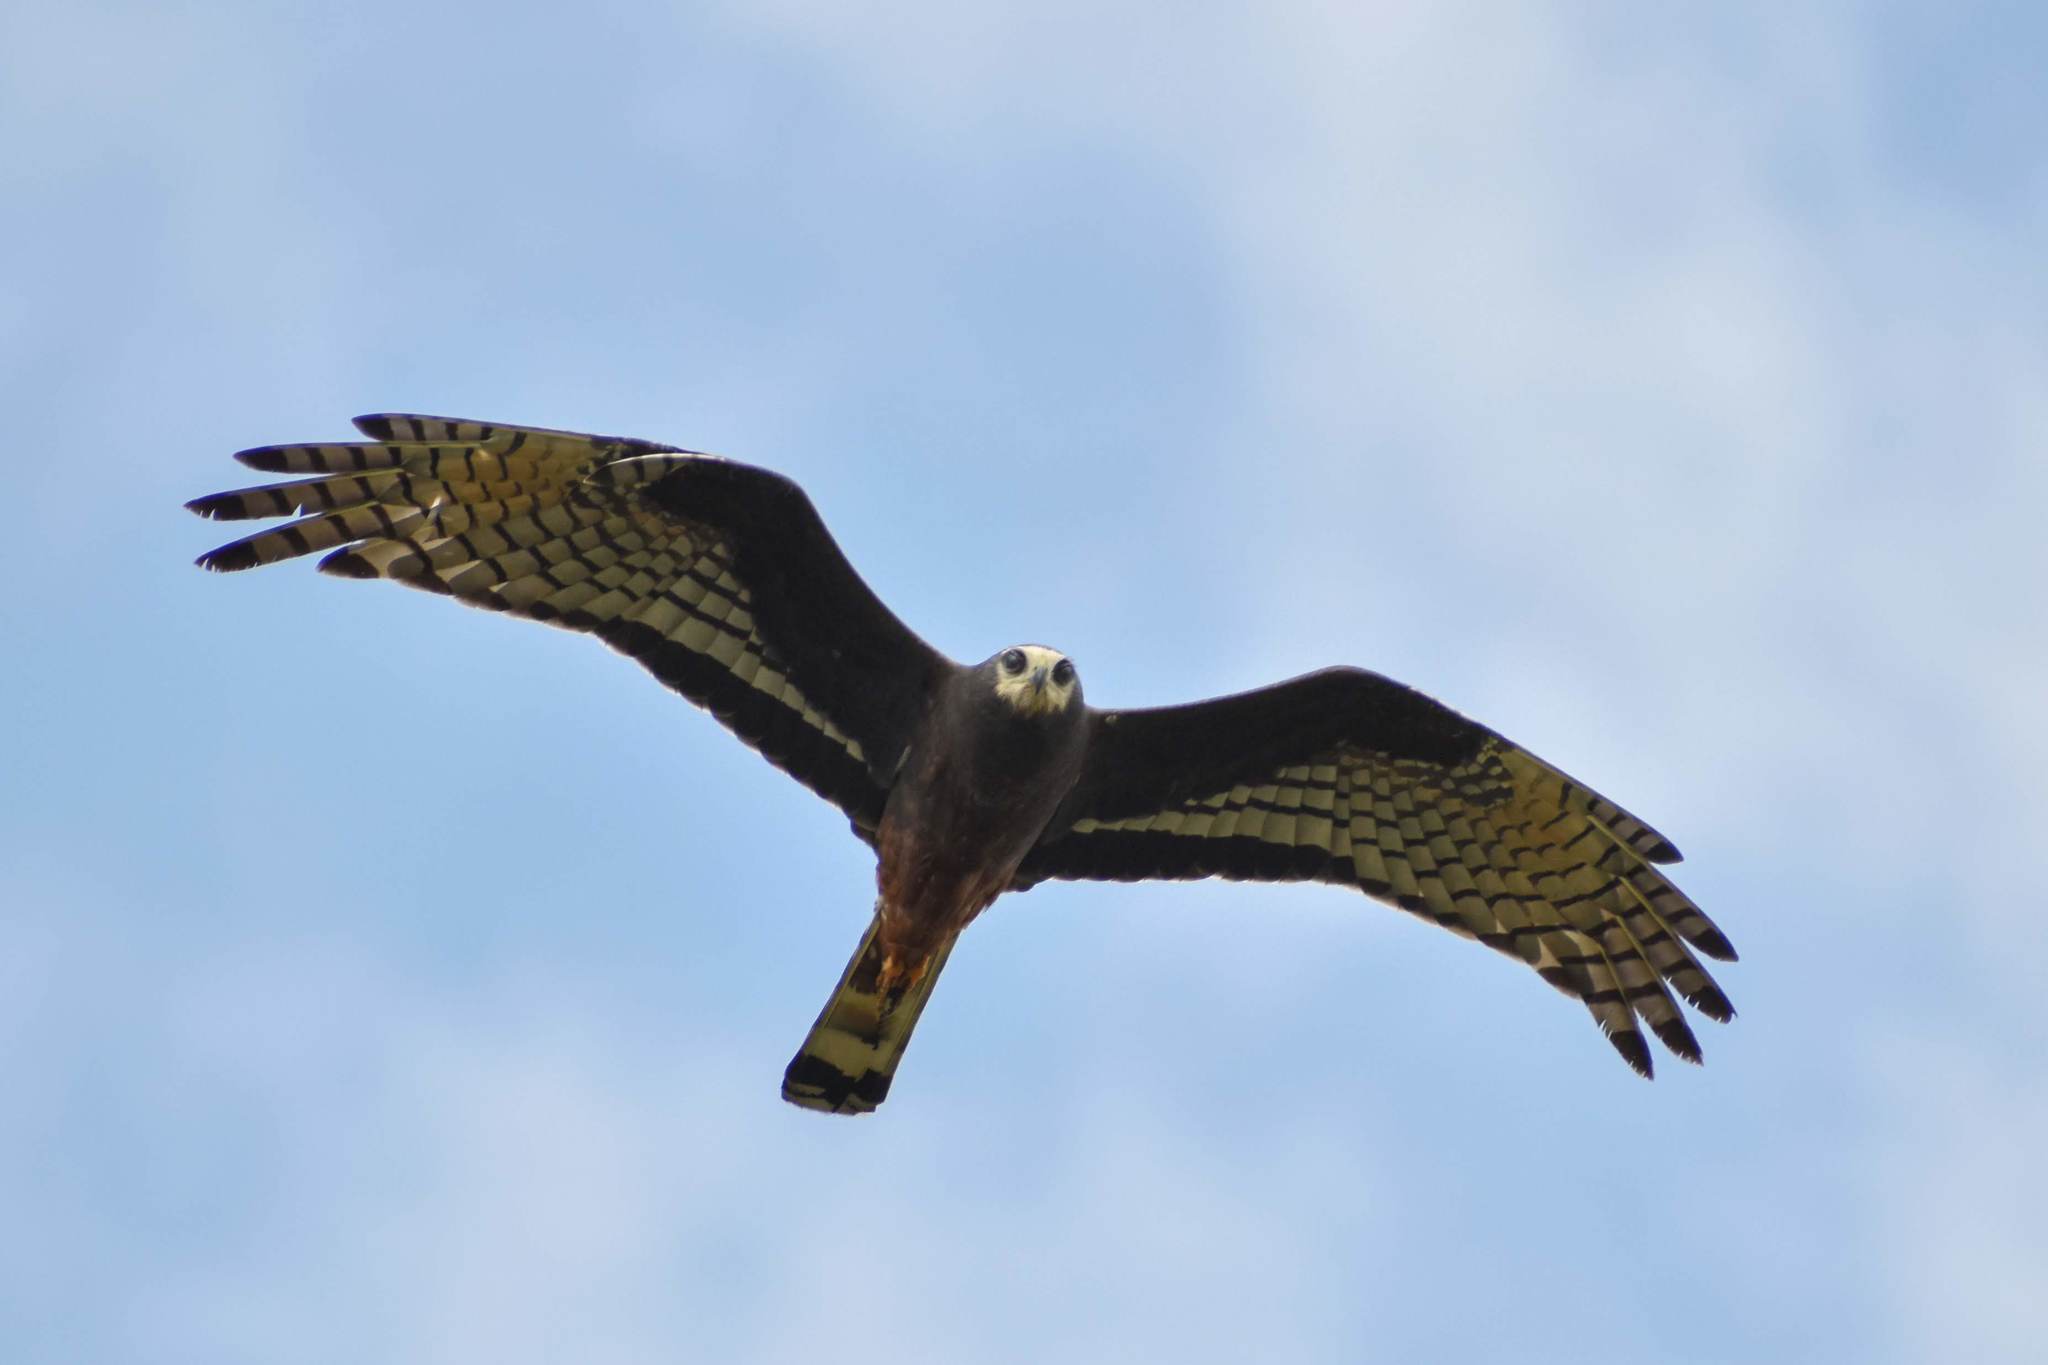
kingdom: Animalia
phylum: Chordata
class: Aves
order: Accipitriformes
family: Accipitridae
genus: Circus
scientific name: Circus buffoni
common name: Long-winged harrier
